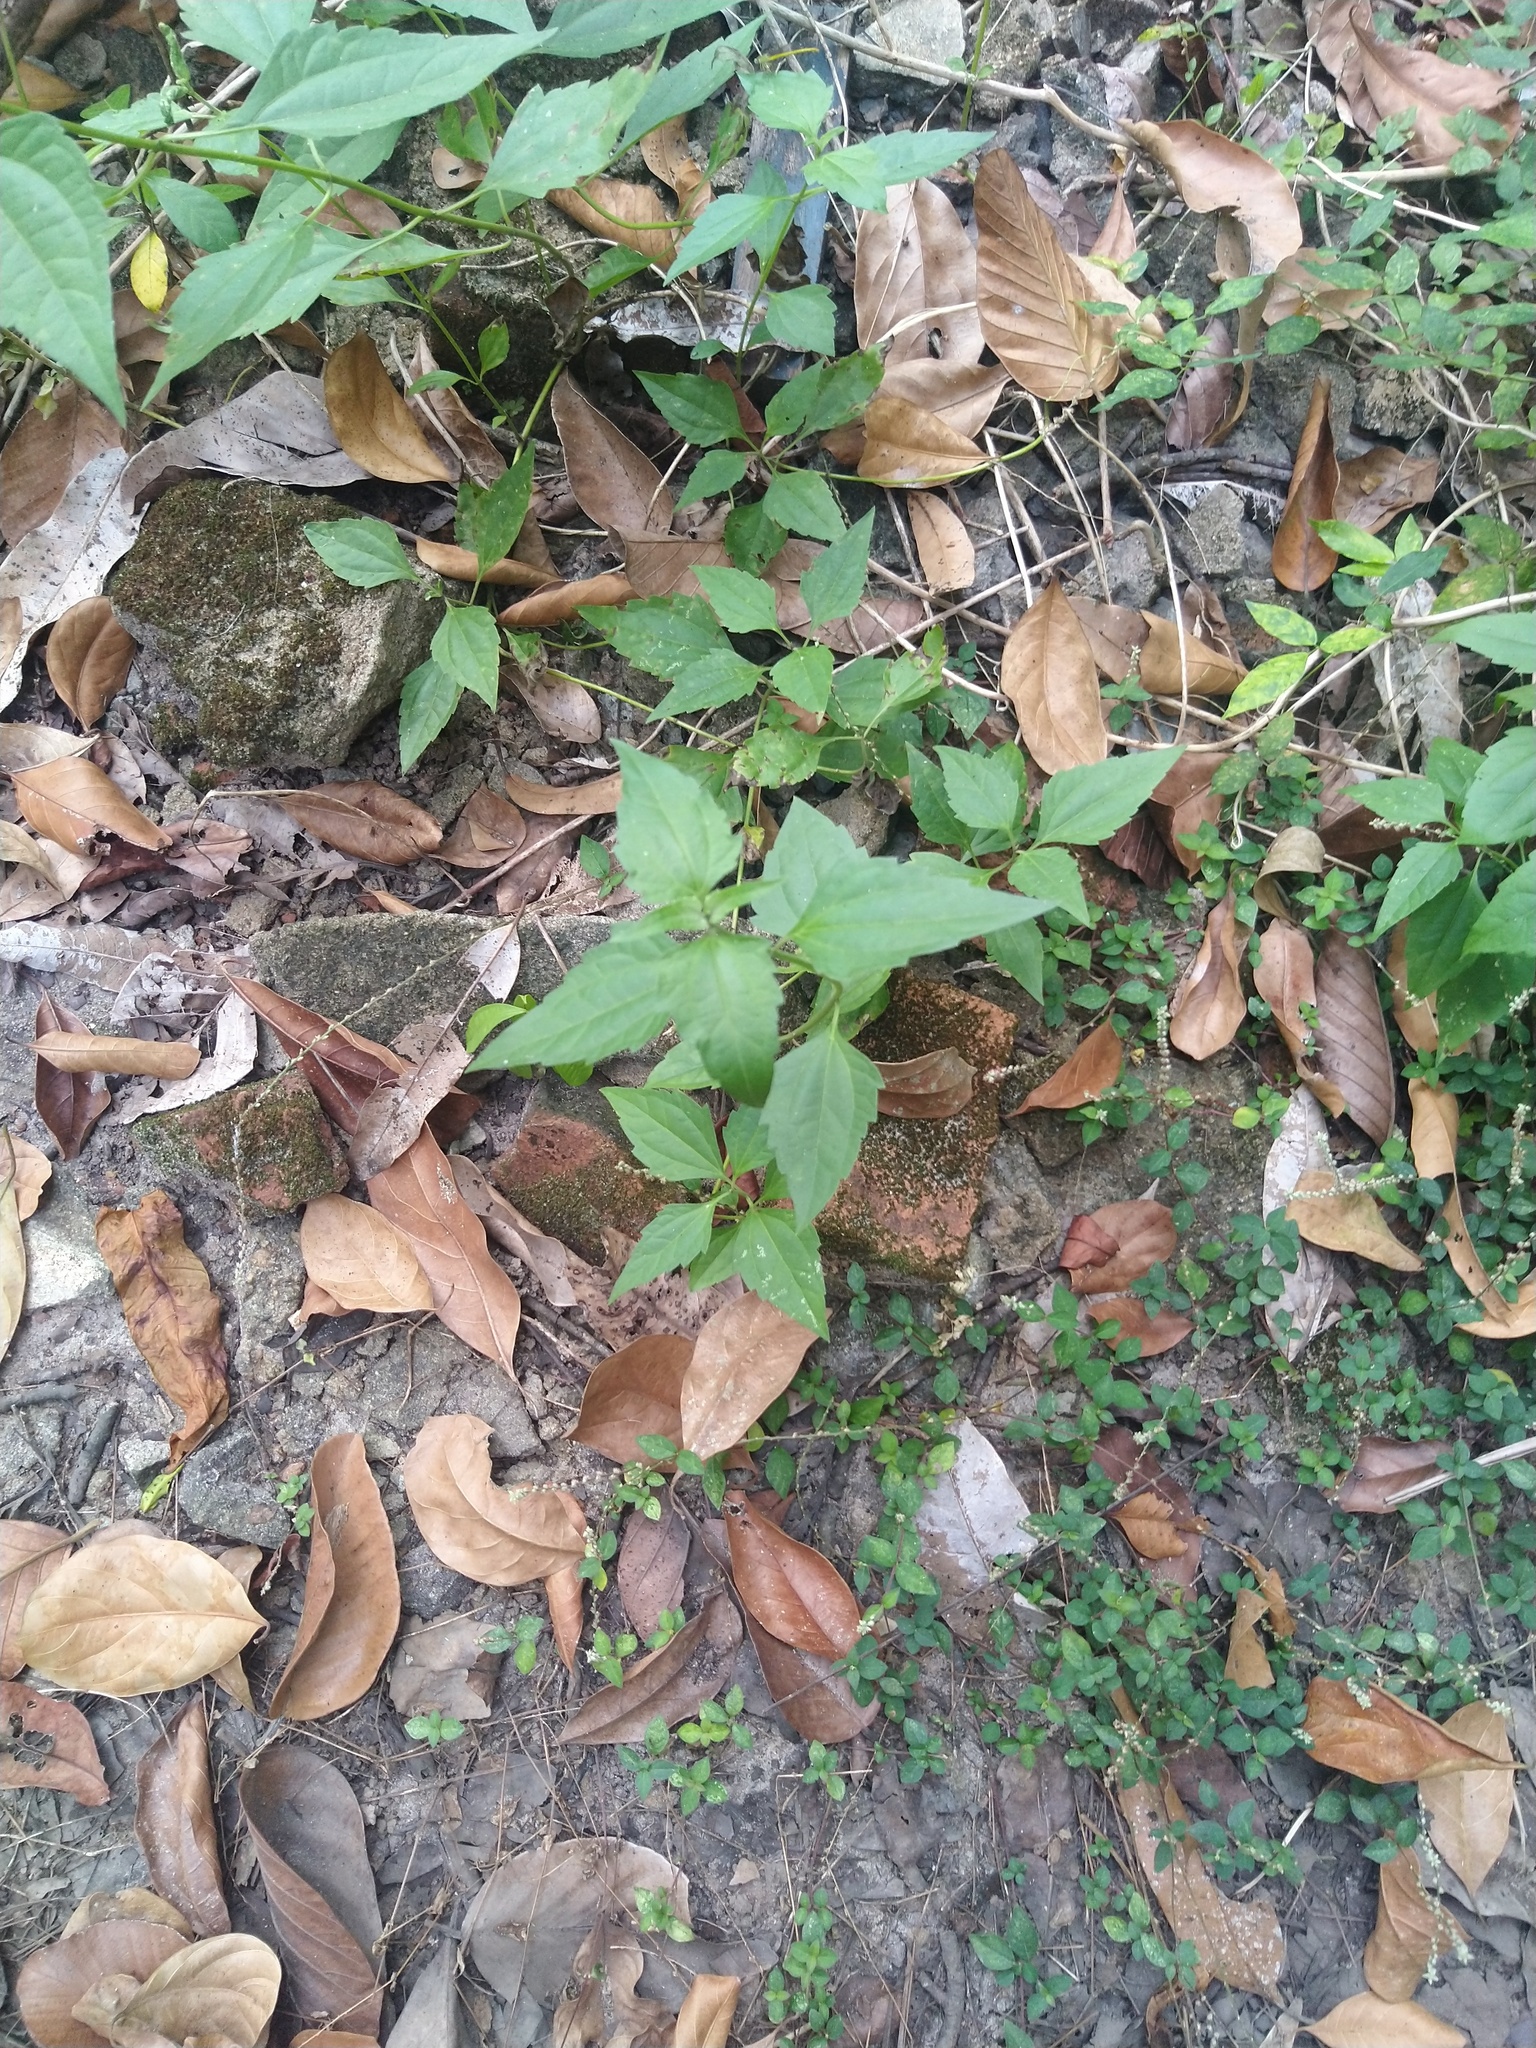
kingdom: Plantae
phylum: Tracheophyta
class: Magnoliopsida
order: Asterales
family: Asteraceae
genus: Chromolaena
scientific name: Chromolaena odorata
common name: Siamweed
